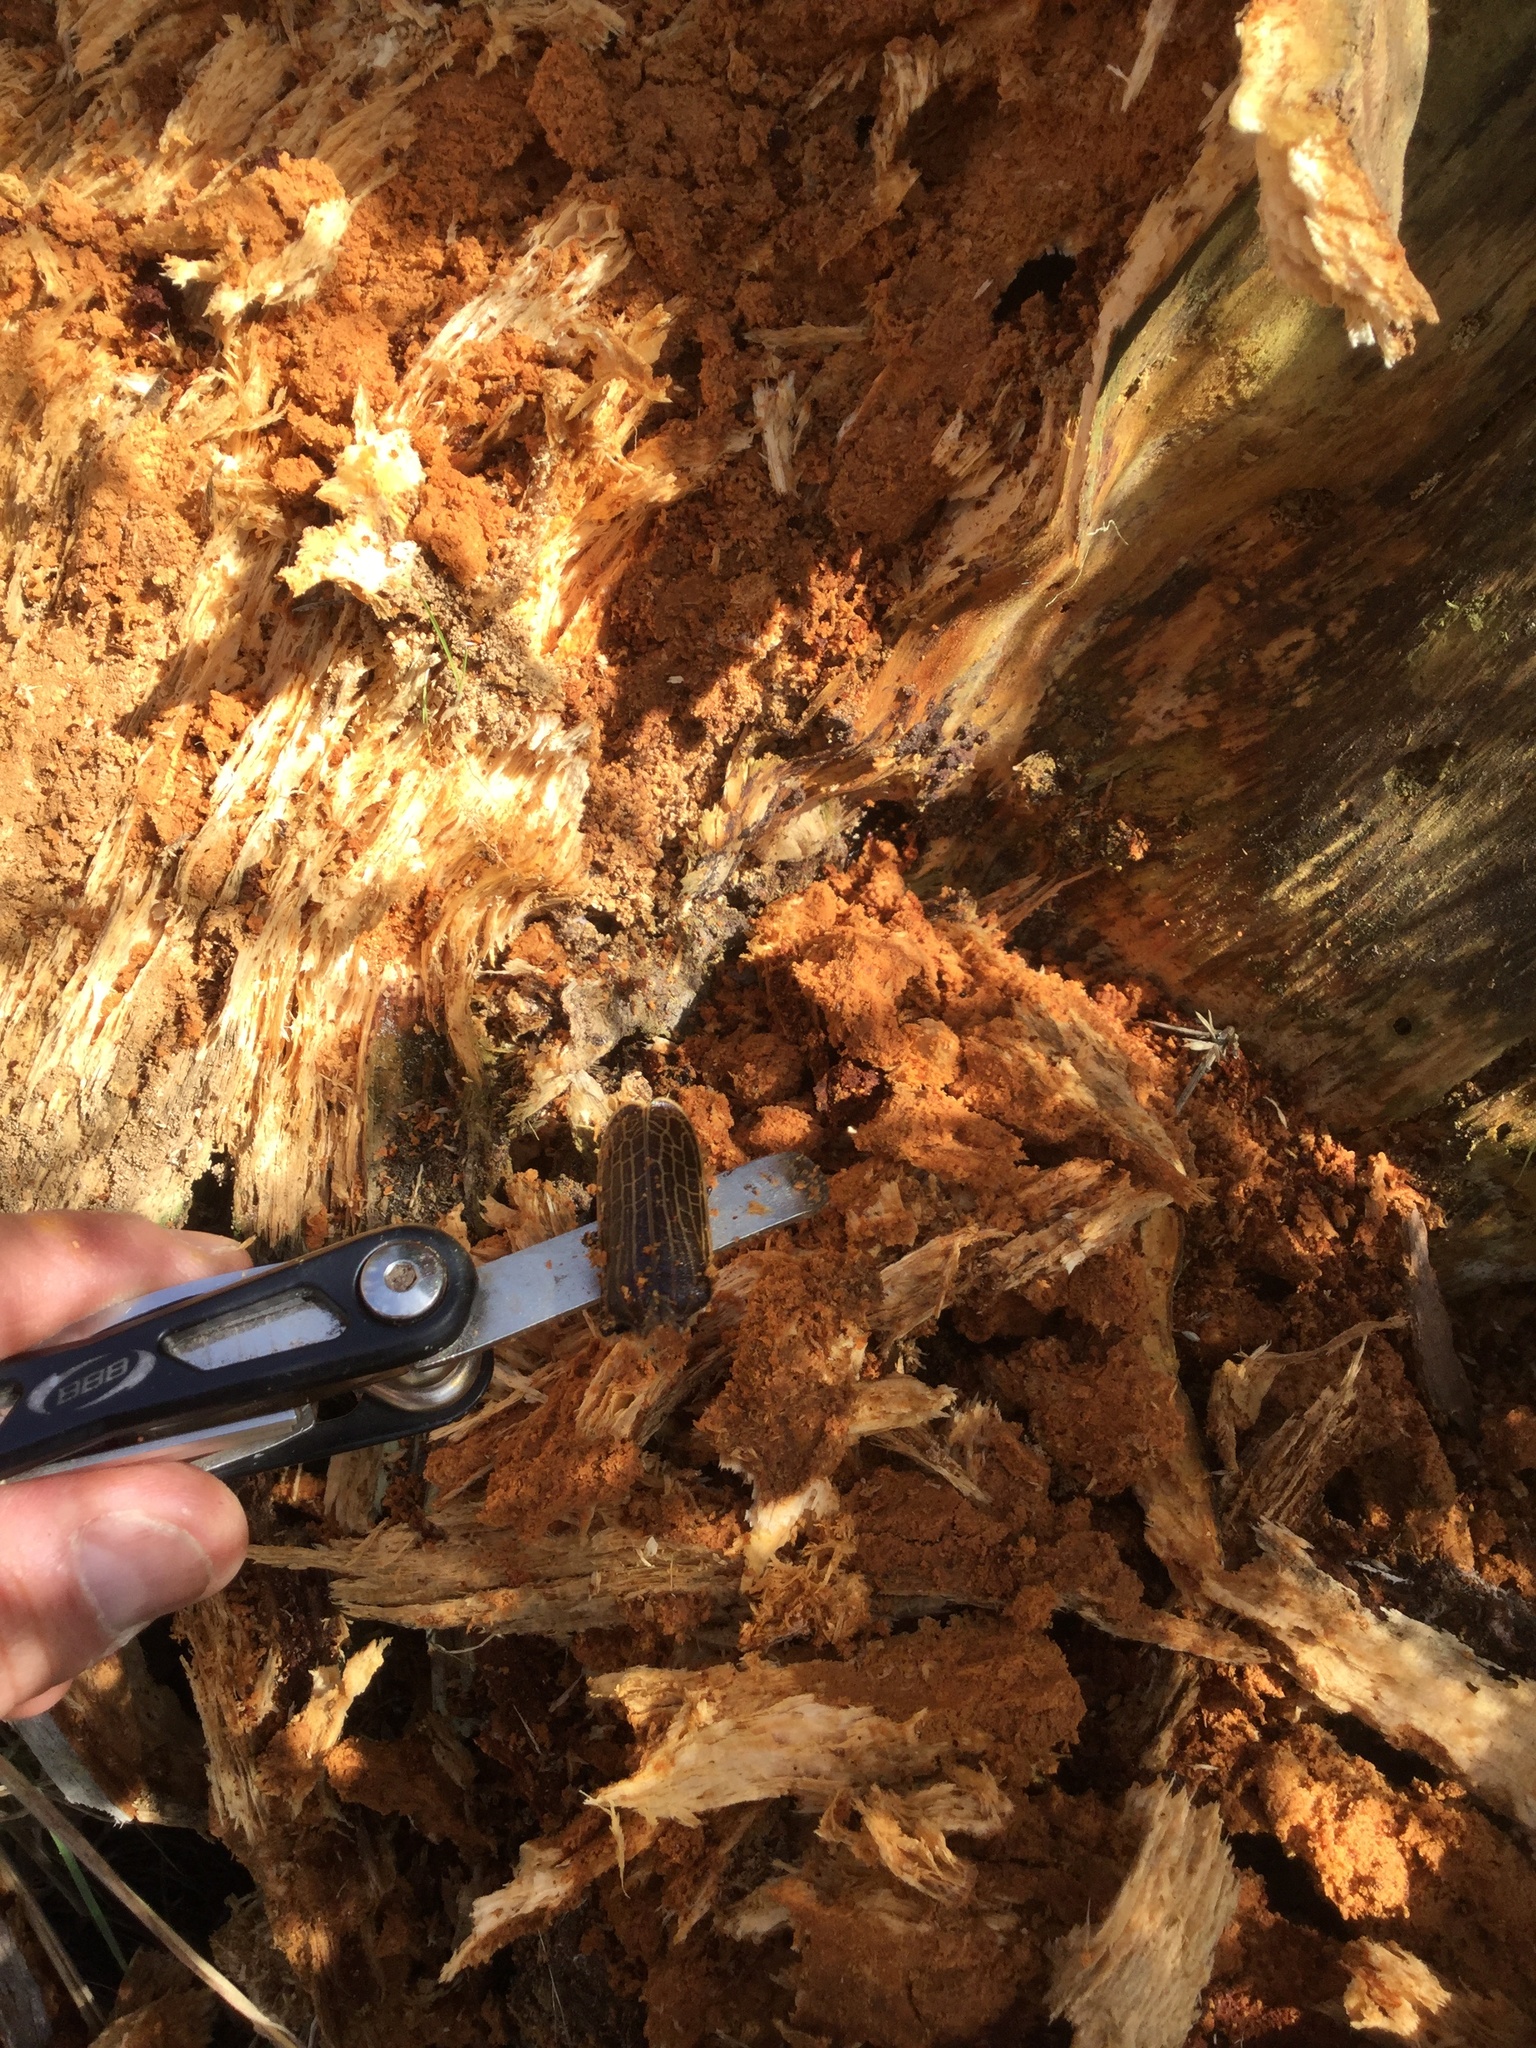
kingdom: Animalia
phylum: Arthropoda
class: Insecta
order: Coleoptera
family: Cerambycidae
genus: Prionoplus
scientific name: Prionoplus reticularis
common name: Huhu beetle
